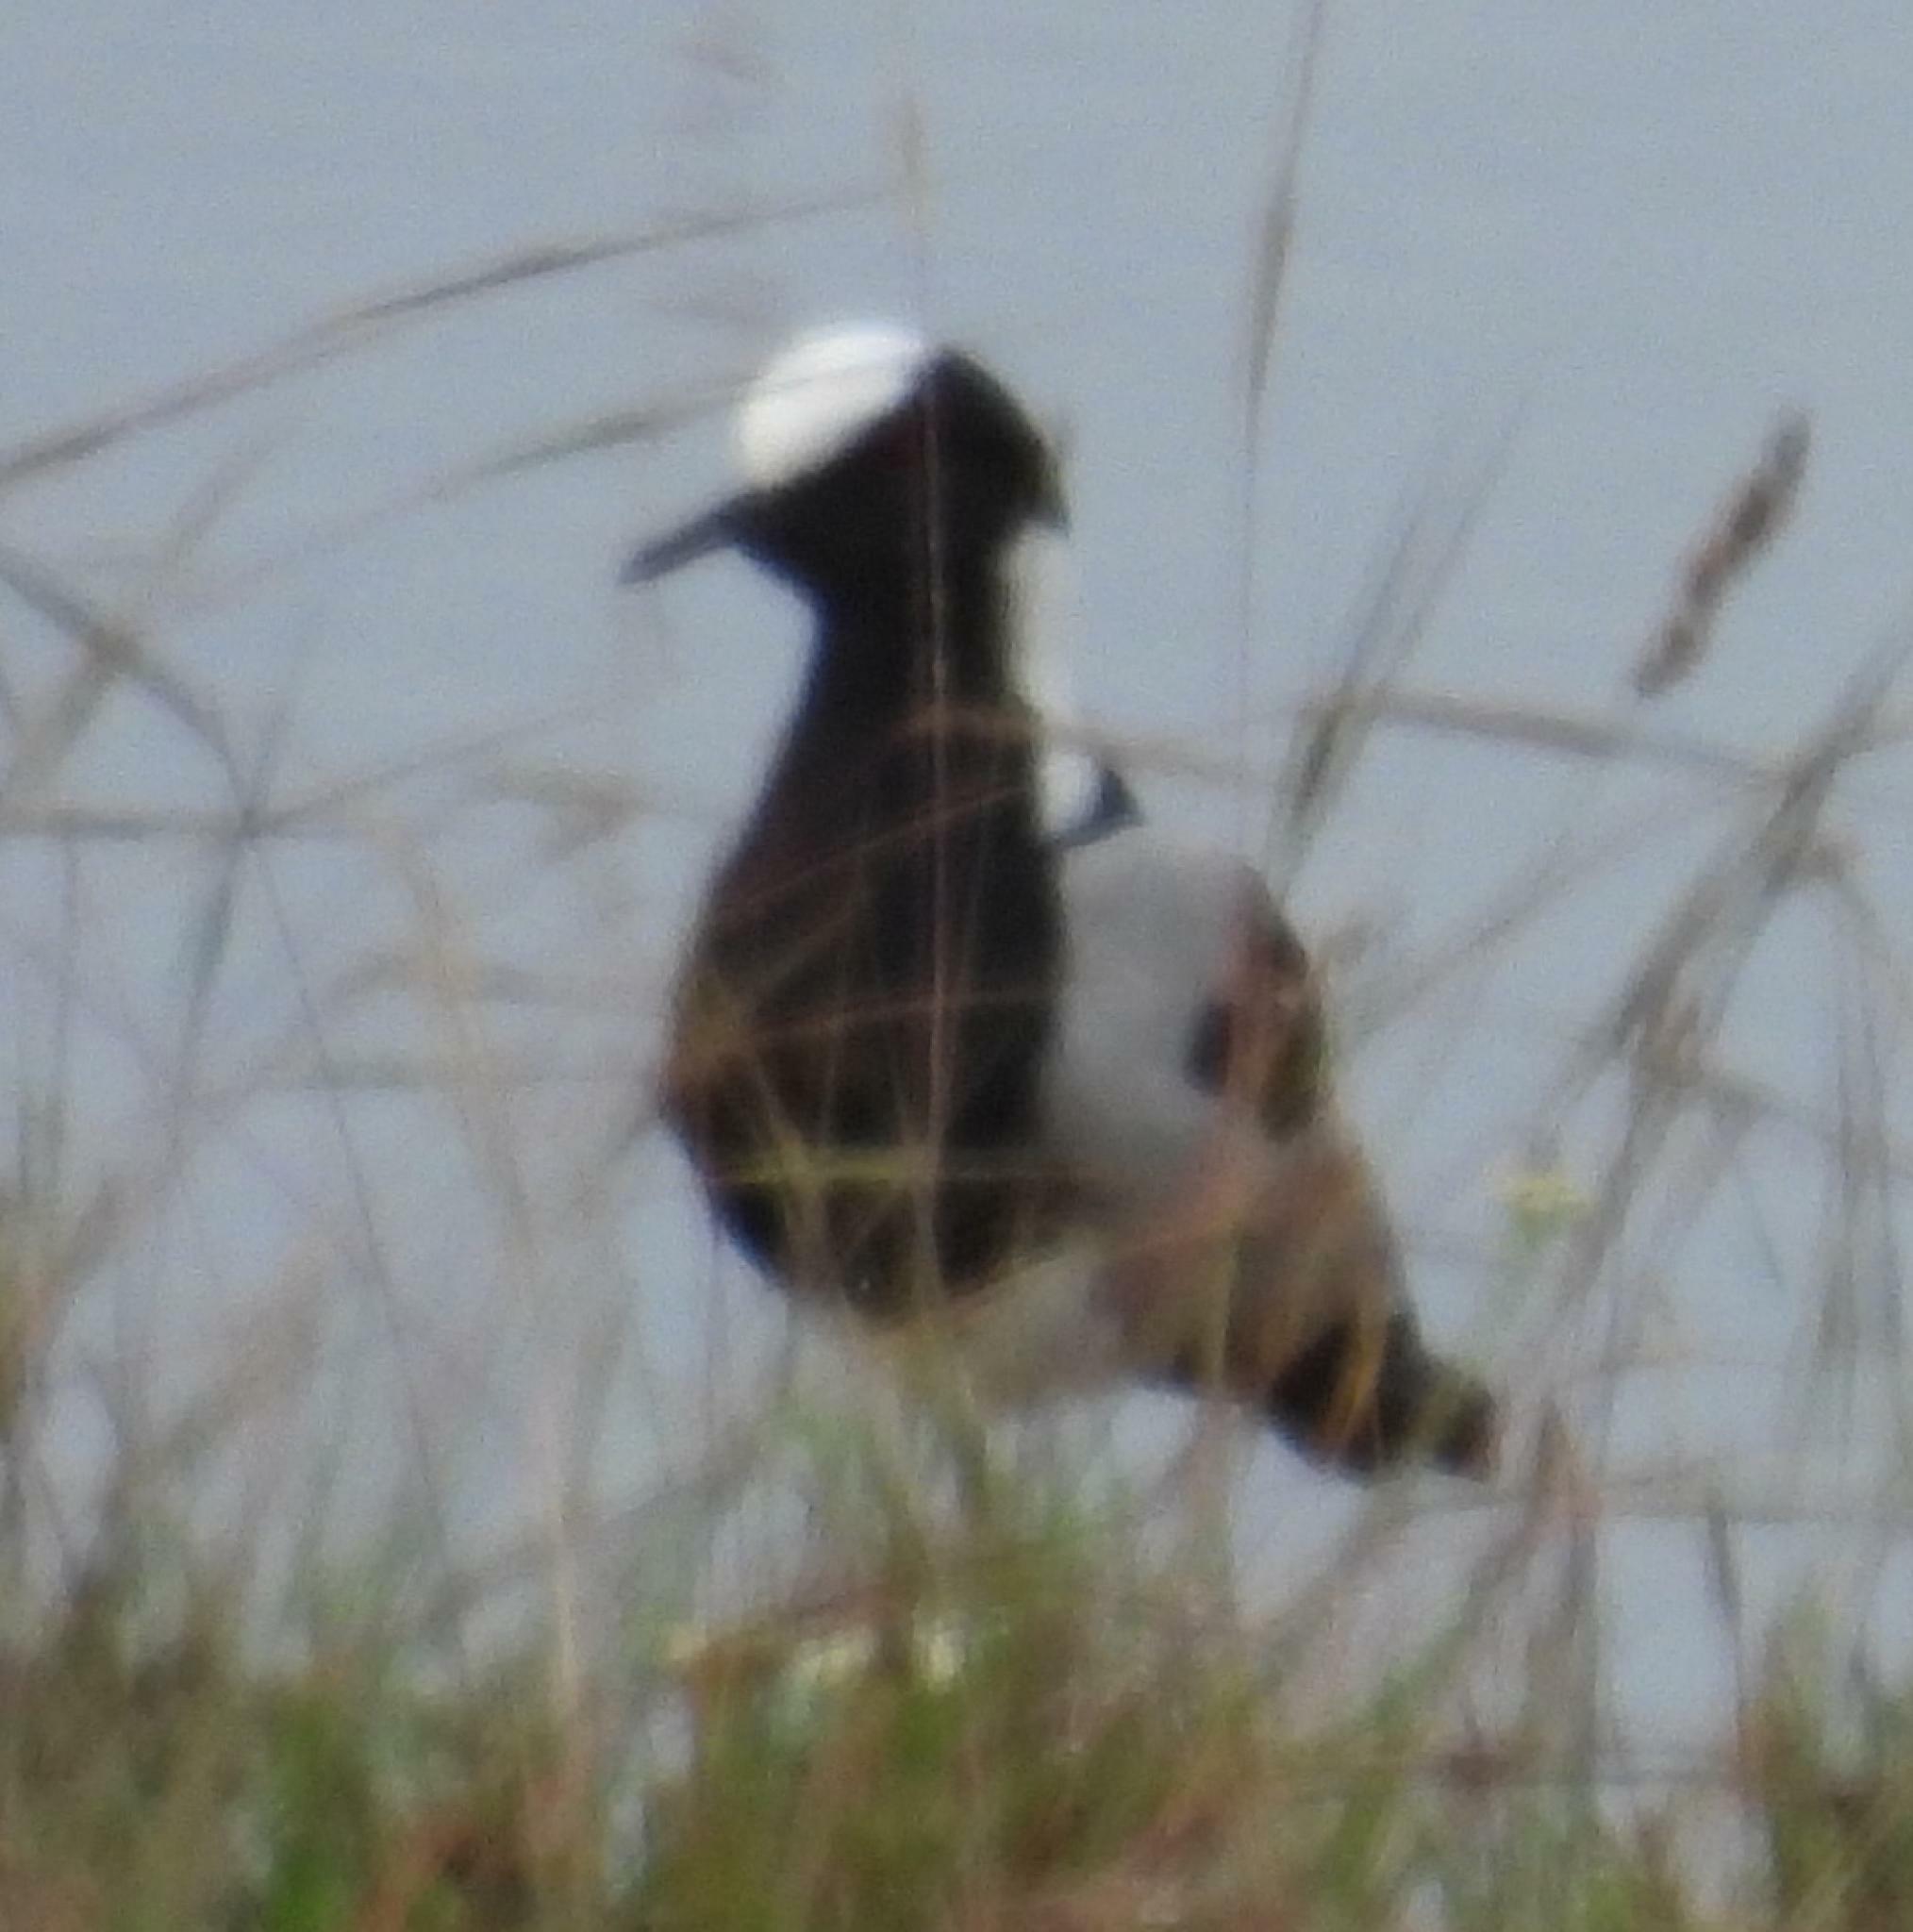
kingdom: Animalia
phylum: Chordata
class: Aves
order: Charadriiformes
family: Charadriidae
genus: Vanellus
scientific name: Vanellus armatus
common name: Blacksmith lapwing
